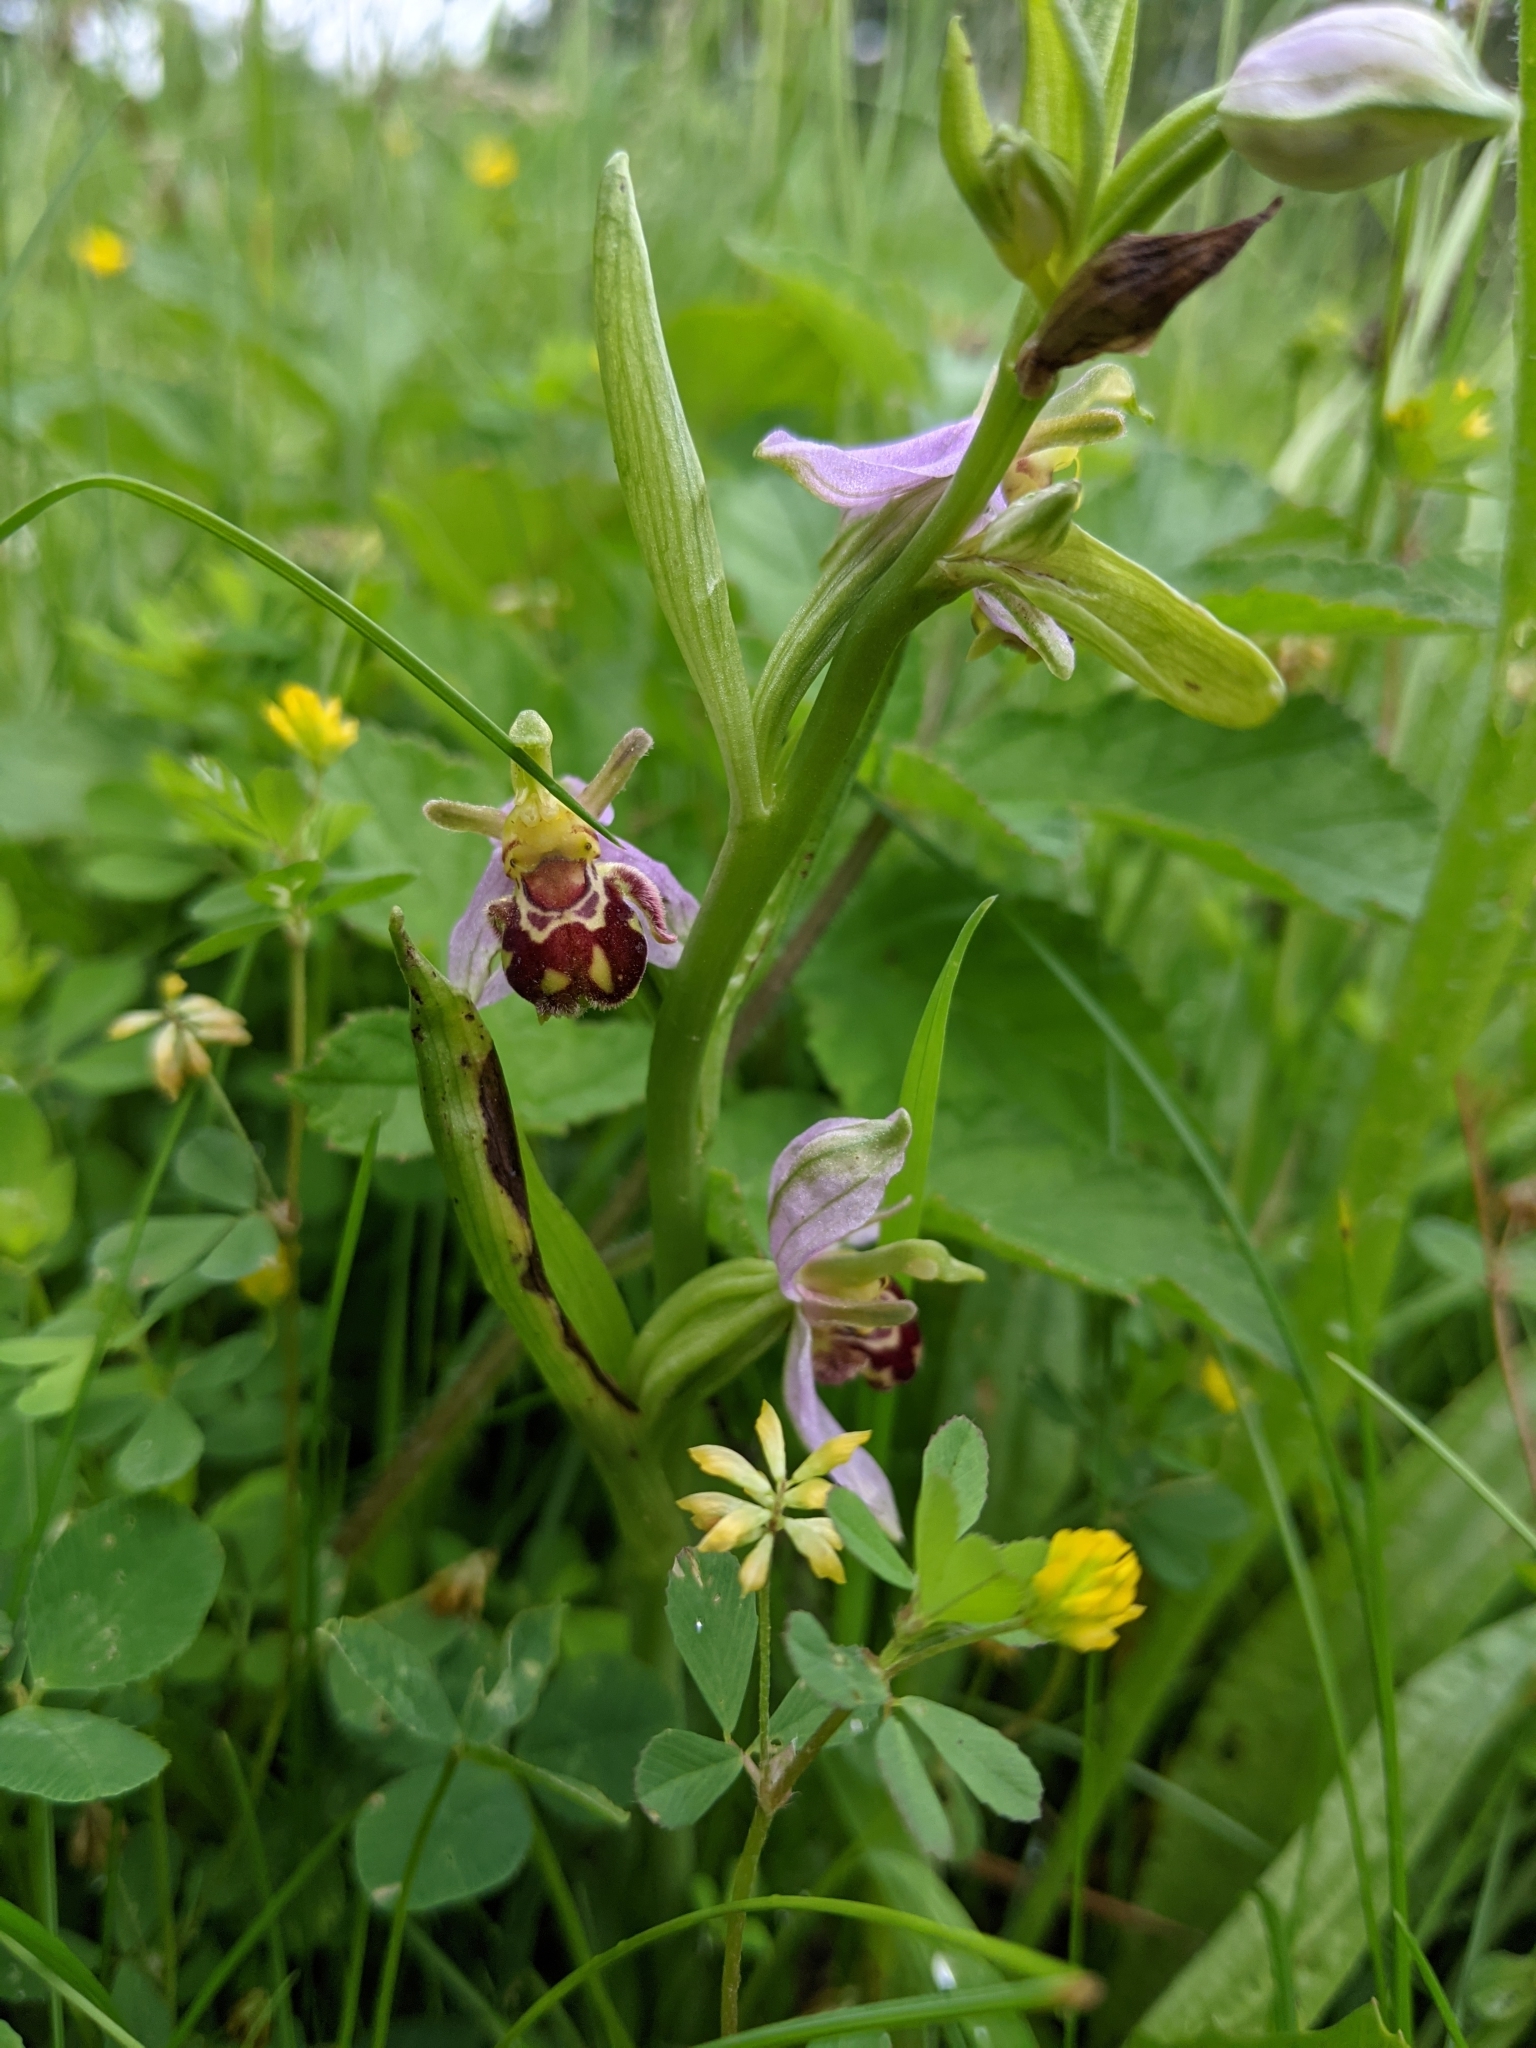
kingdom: Plantae
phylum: Tracheophyta
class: Liliopsida
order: Asparagales
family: Orchidaceae
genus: Ophrys
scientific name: Ophrys apifera
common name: Bee orchid
